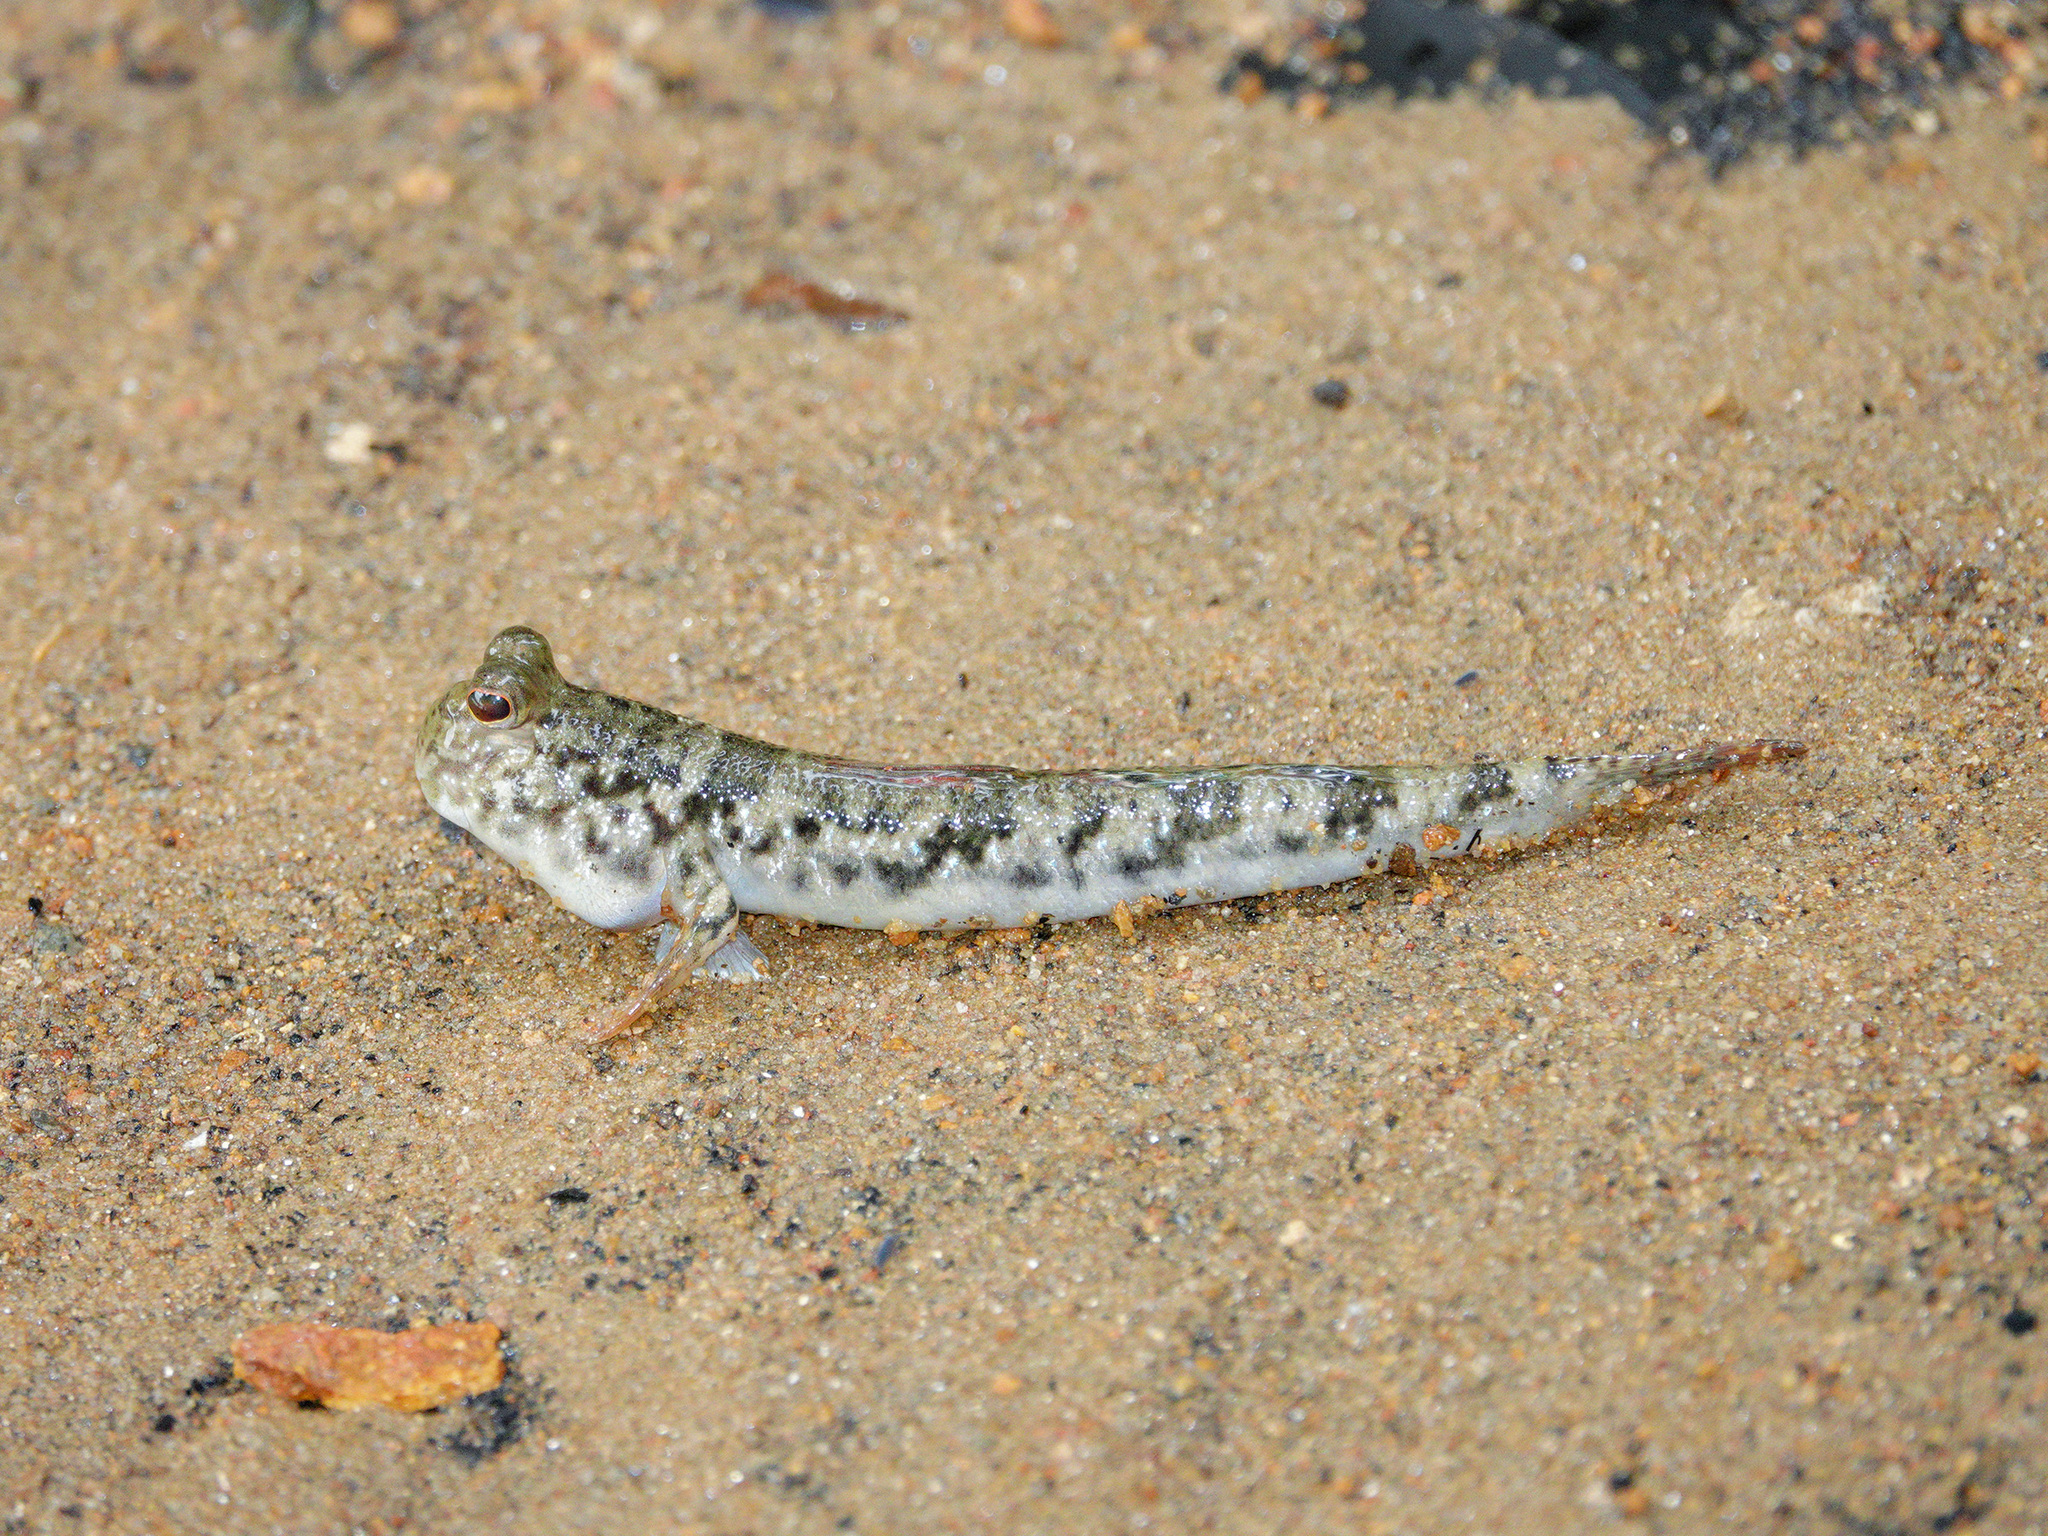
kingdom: Animalia
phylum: Chordata
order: Perciformes
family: Gobiidae
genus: Periophthalmus
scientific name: Periophthalmus argentilineatus
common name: Barred mudskipper
